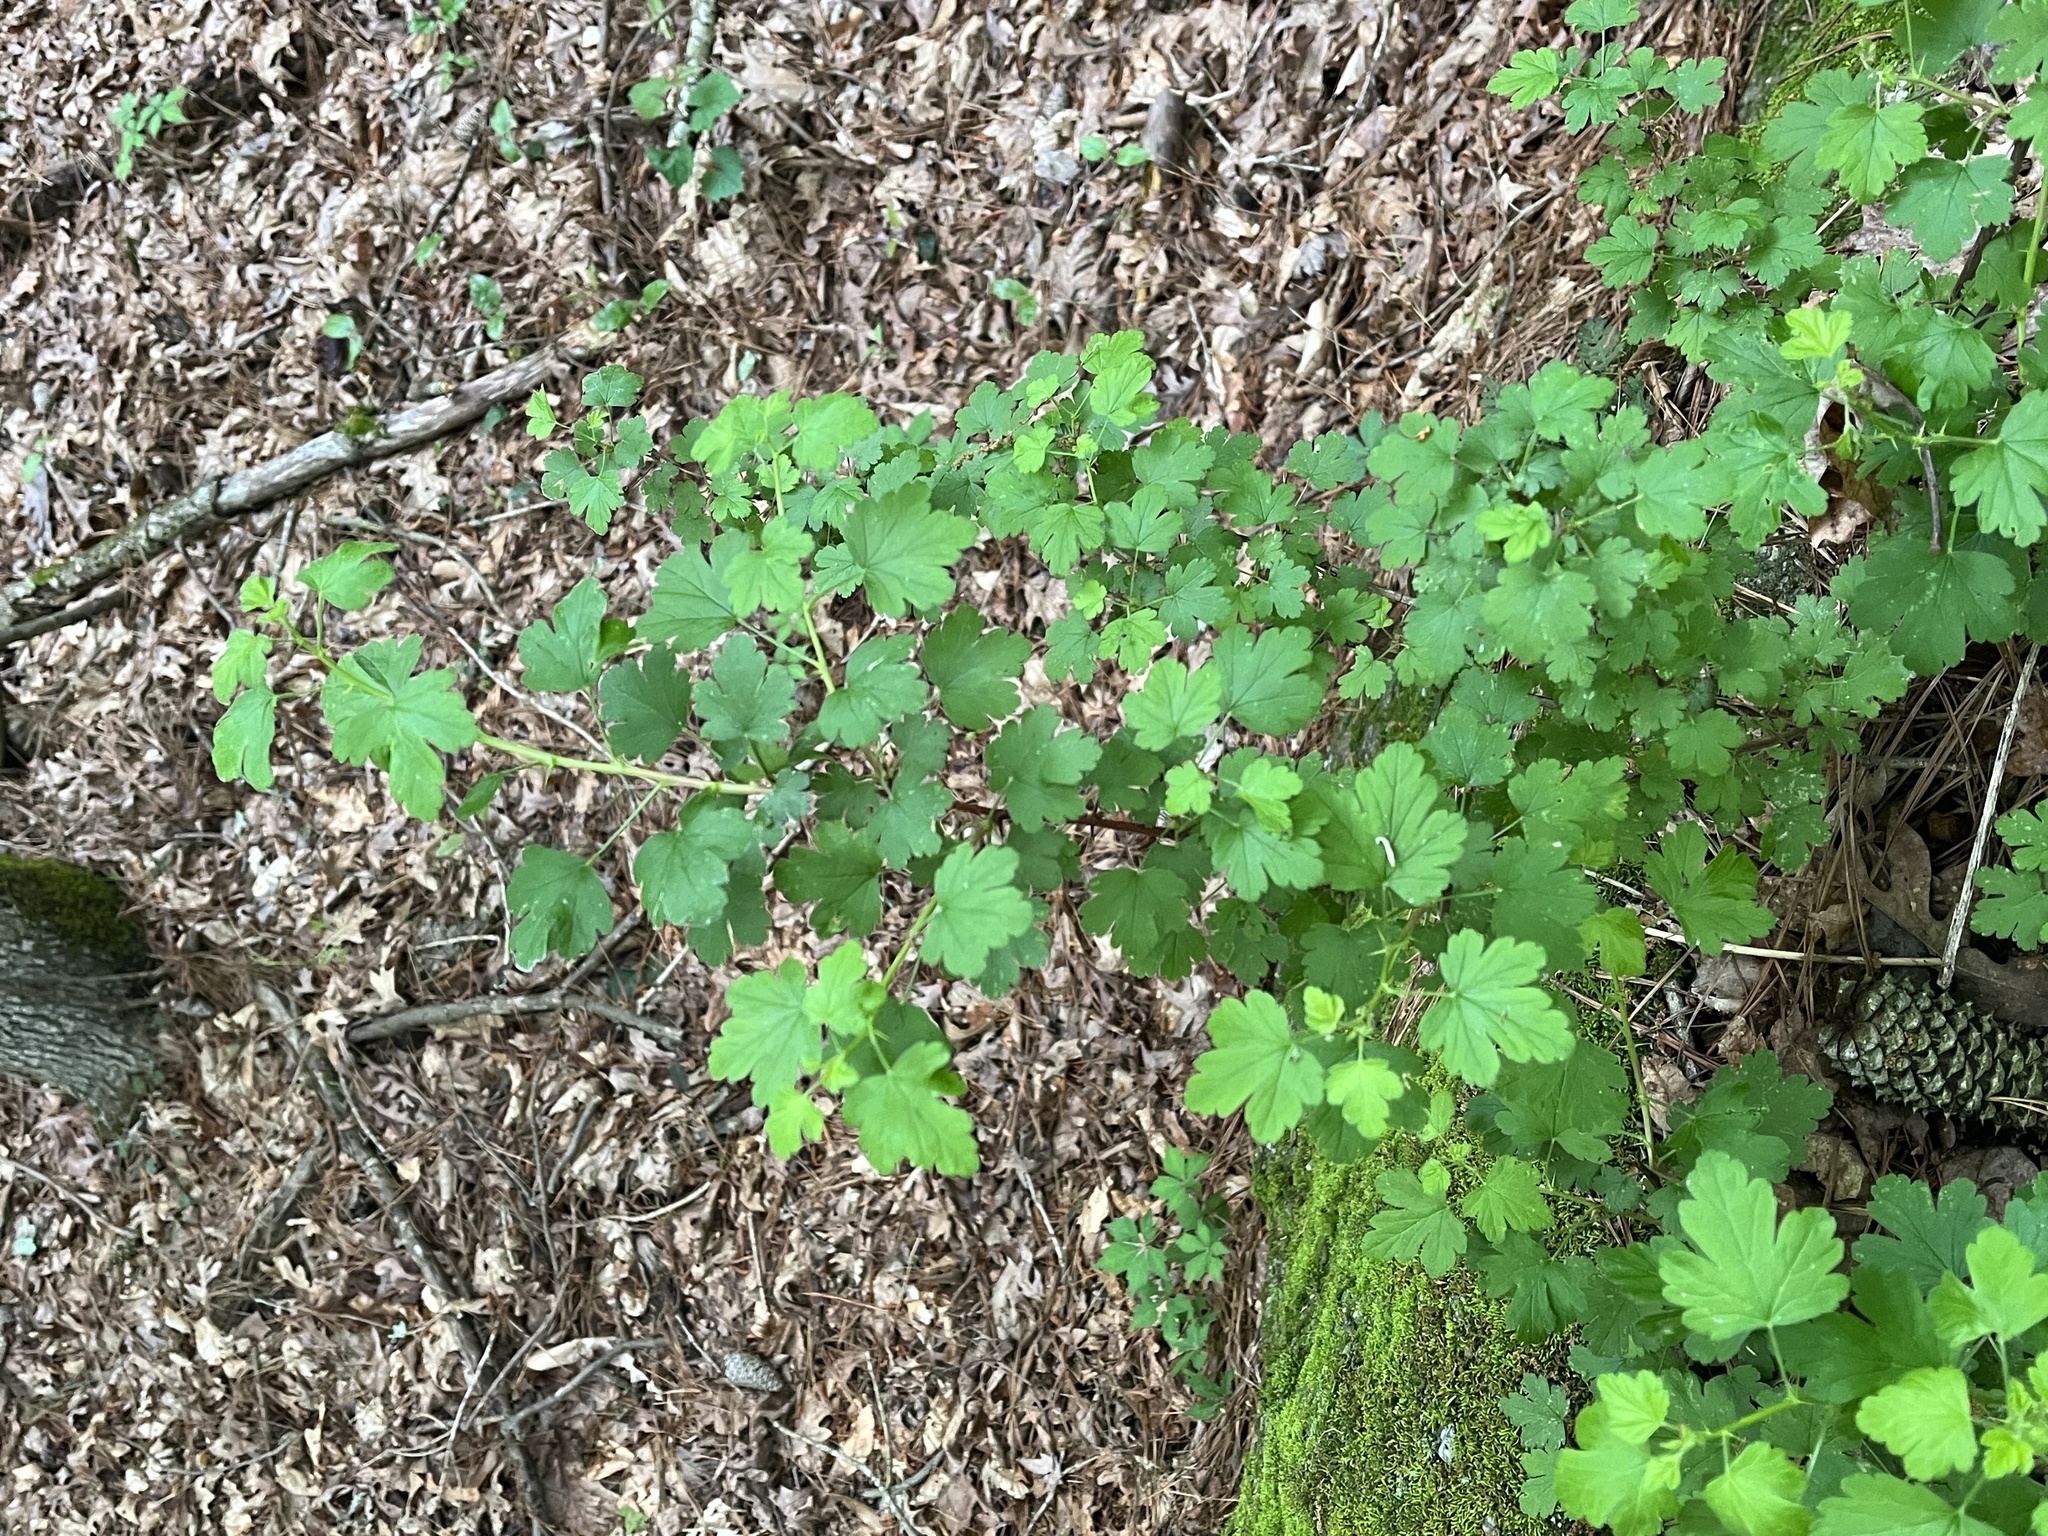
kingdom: Plantae
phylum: Tracheophyta
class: Magnoliopsida
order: Saxifragales
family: Grossulariaceae
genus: Ribes
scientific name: Ribes curvatum
